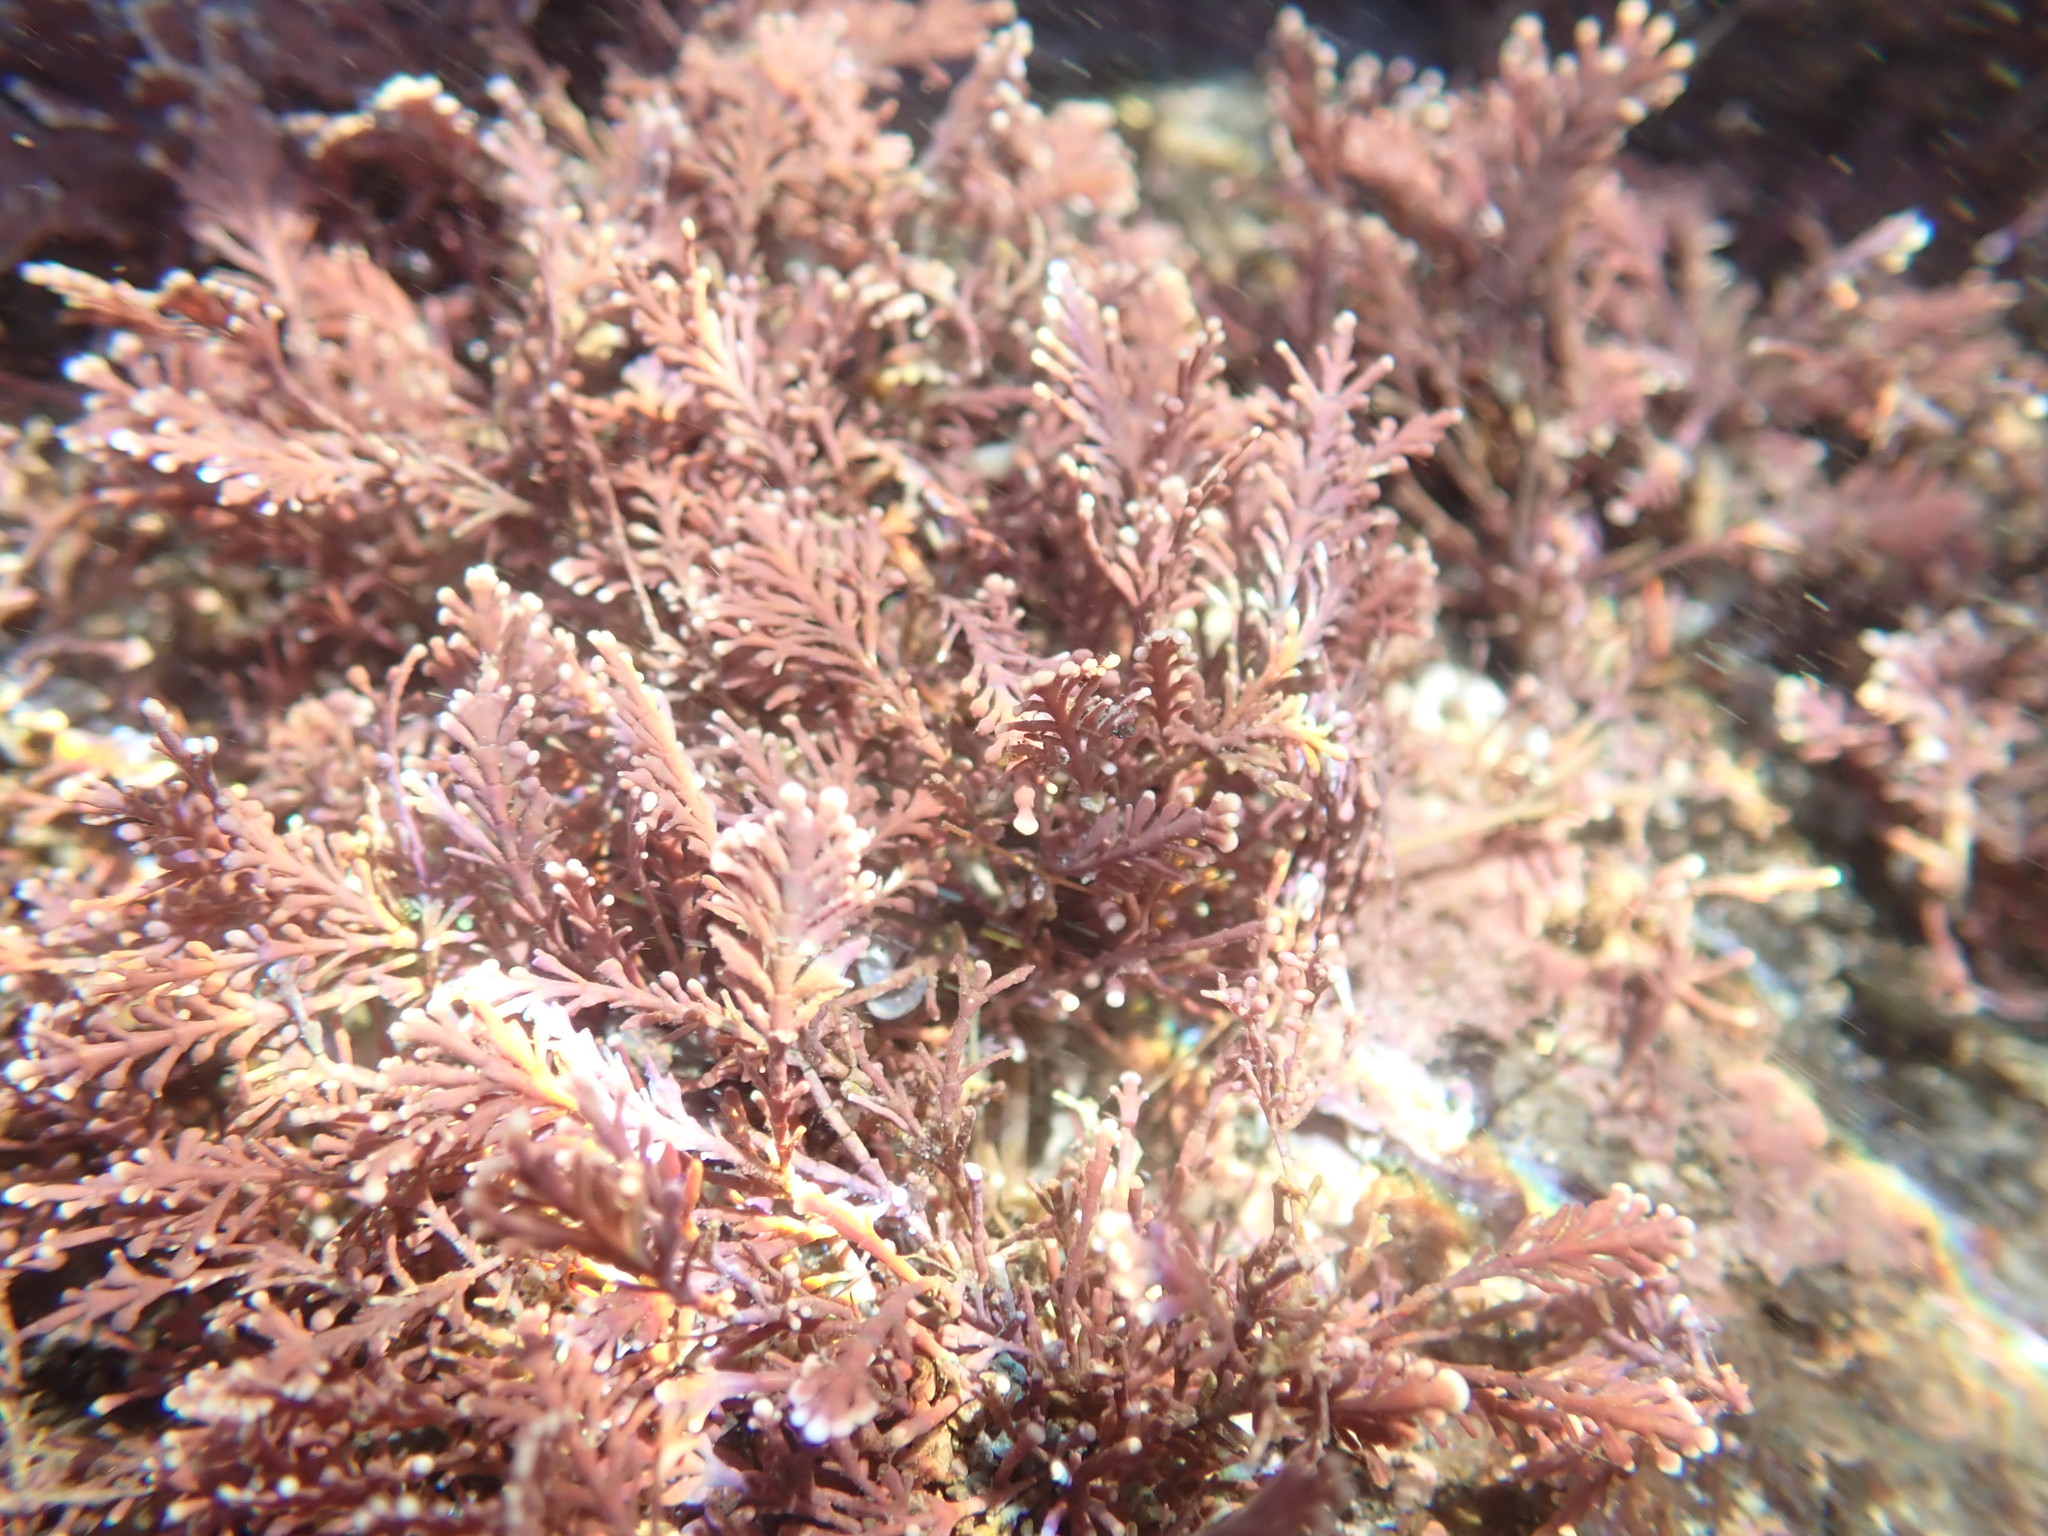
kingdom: Plantae
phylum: Rhodophyta
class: Florideophyceae
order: Corallinales
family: Corallinaceae
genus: Corallina
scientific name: Corallina officinalis
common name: Coral weed
